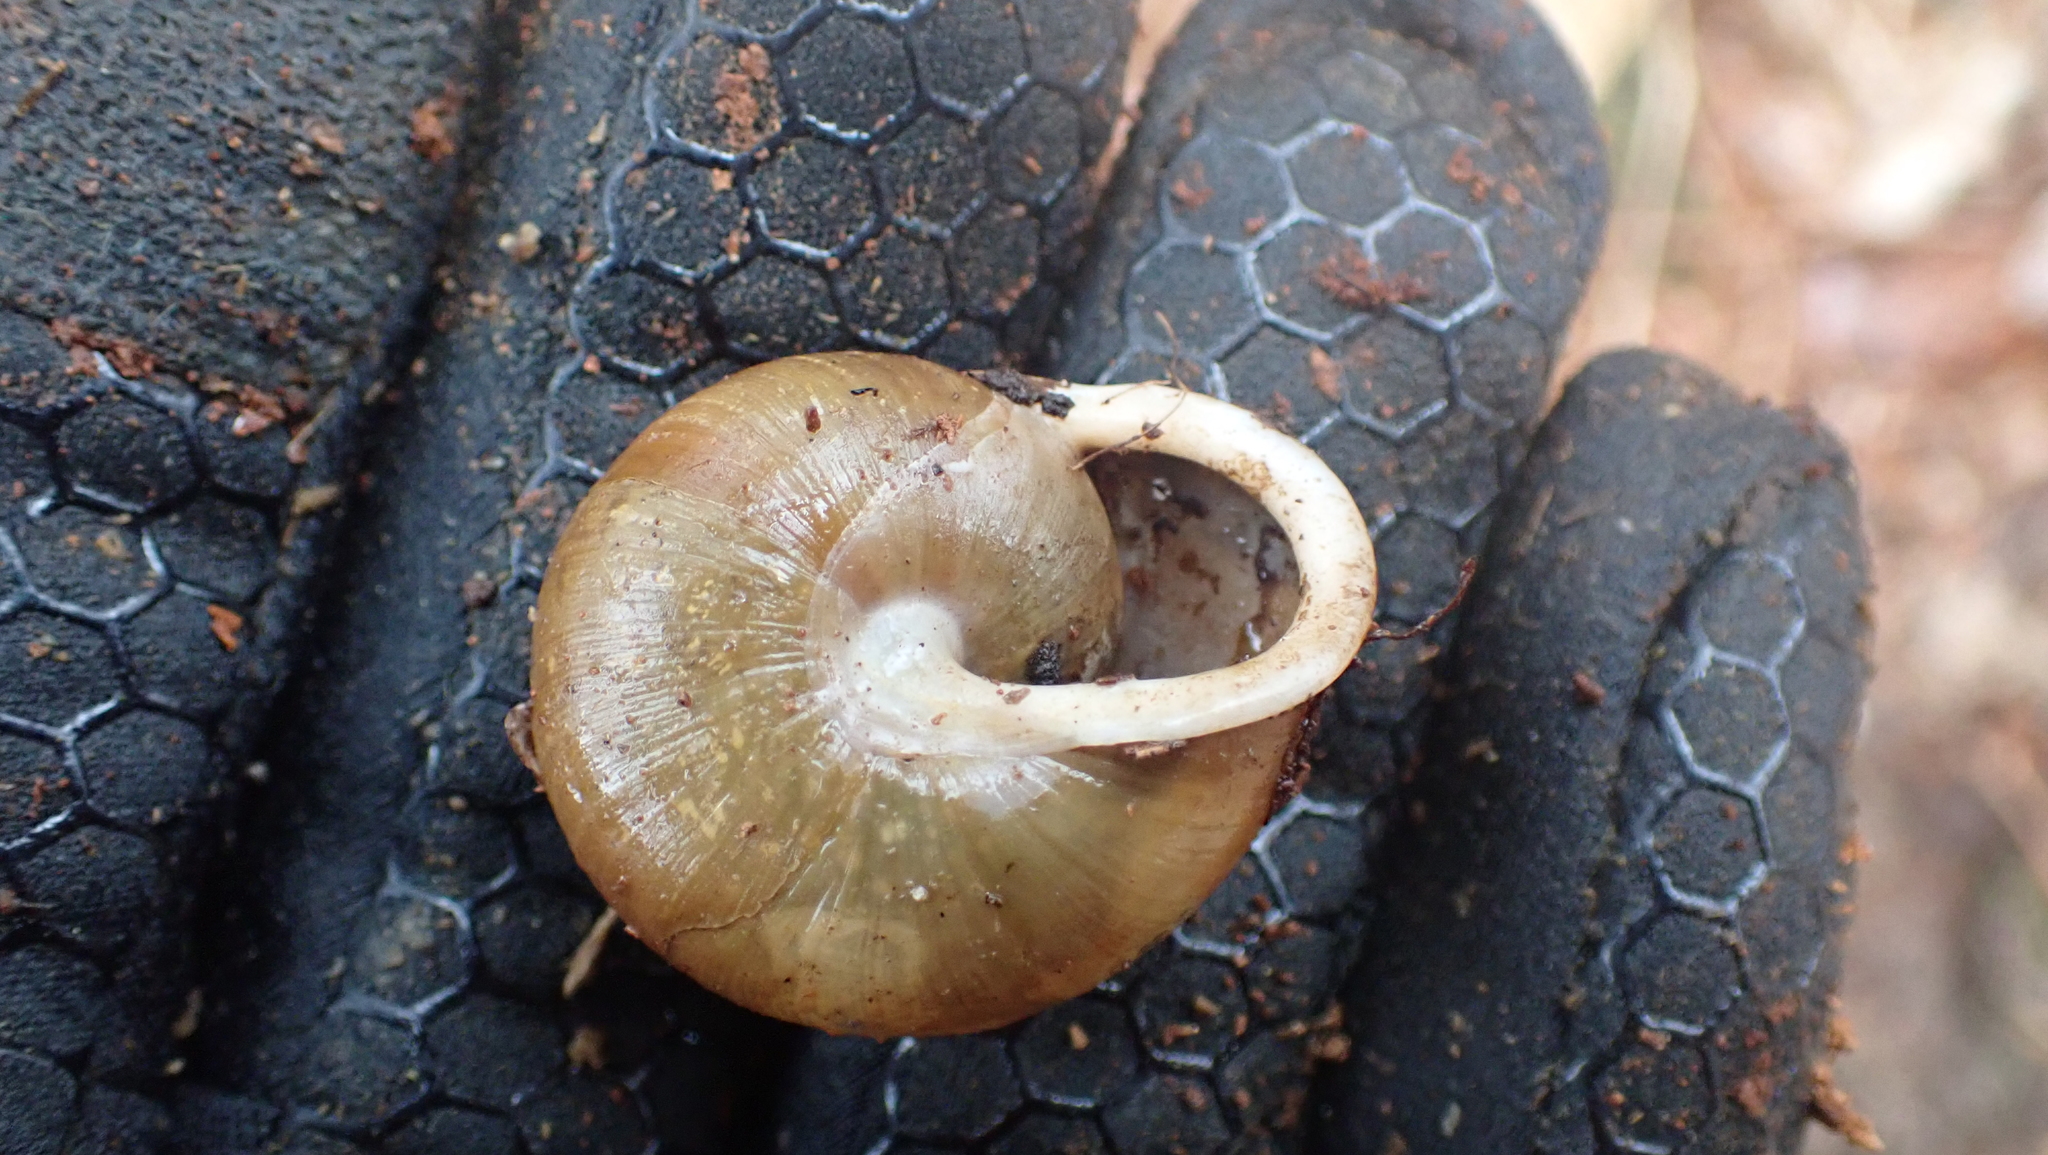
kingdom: Animalia
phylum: Mollusca
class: Gastropoda
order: Stylommatophora
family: Polygyridae
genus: Neohelix
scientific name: Neohelix albolabris
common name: Eastern whitelip
